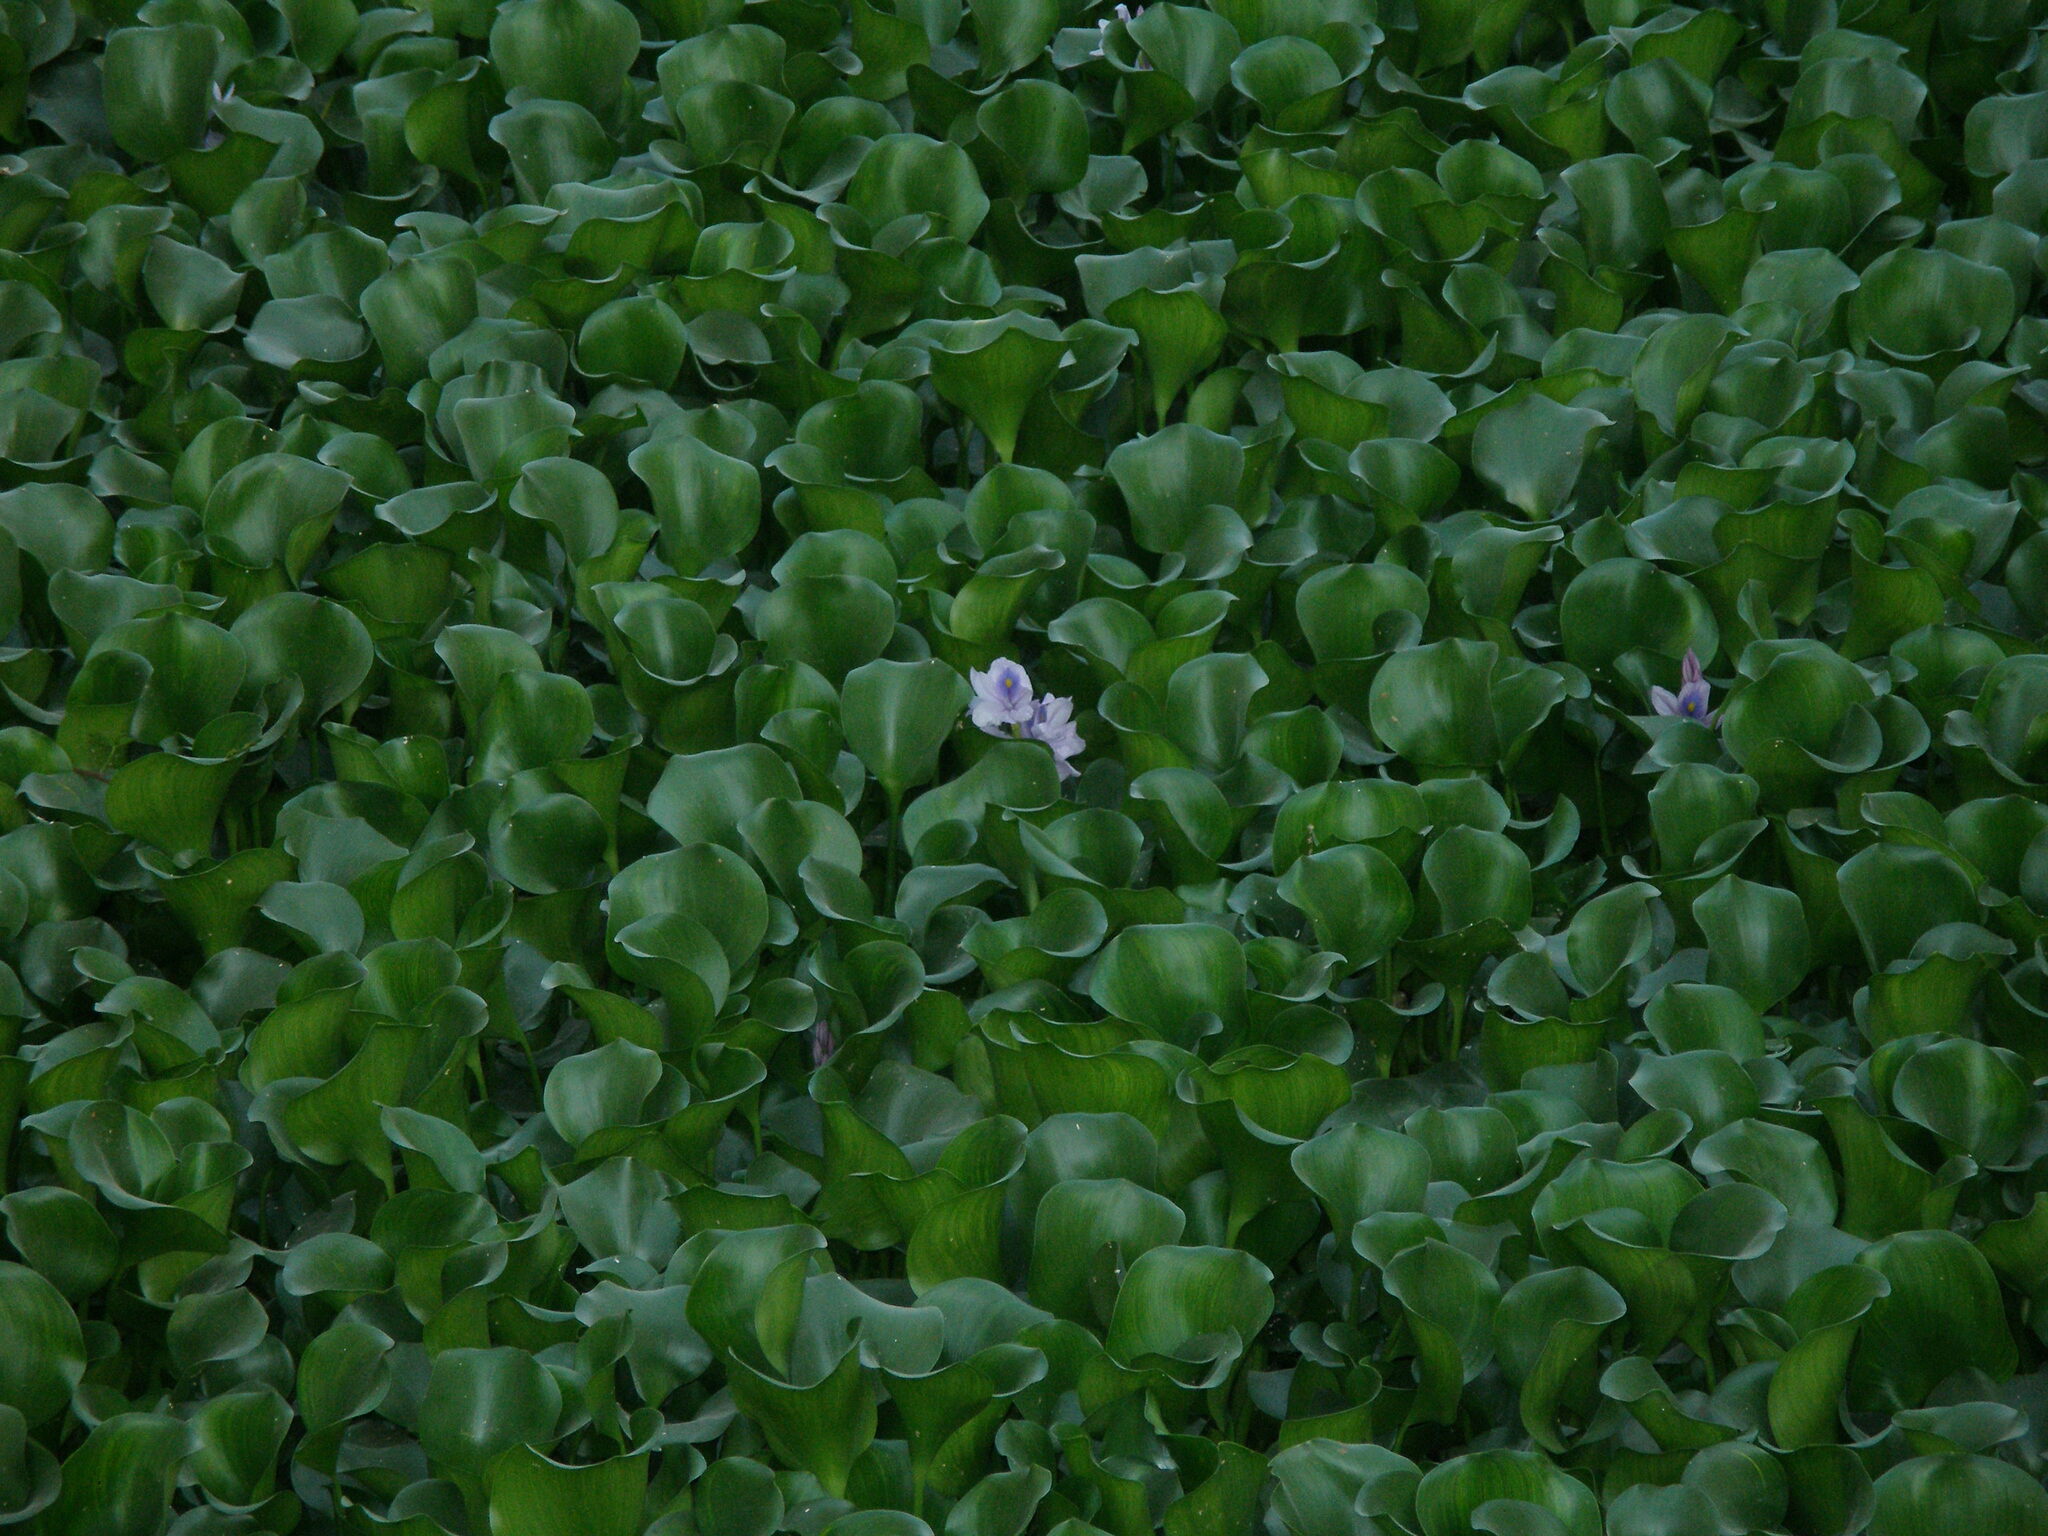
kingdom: Plantae
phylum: Tracheophyta
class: Liliopsida
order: Commelinales
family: Pontederiaceae
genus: Pontederia
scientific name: Pontederia crassipes
